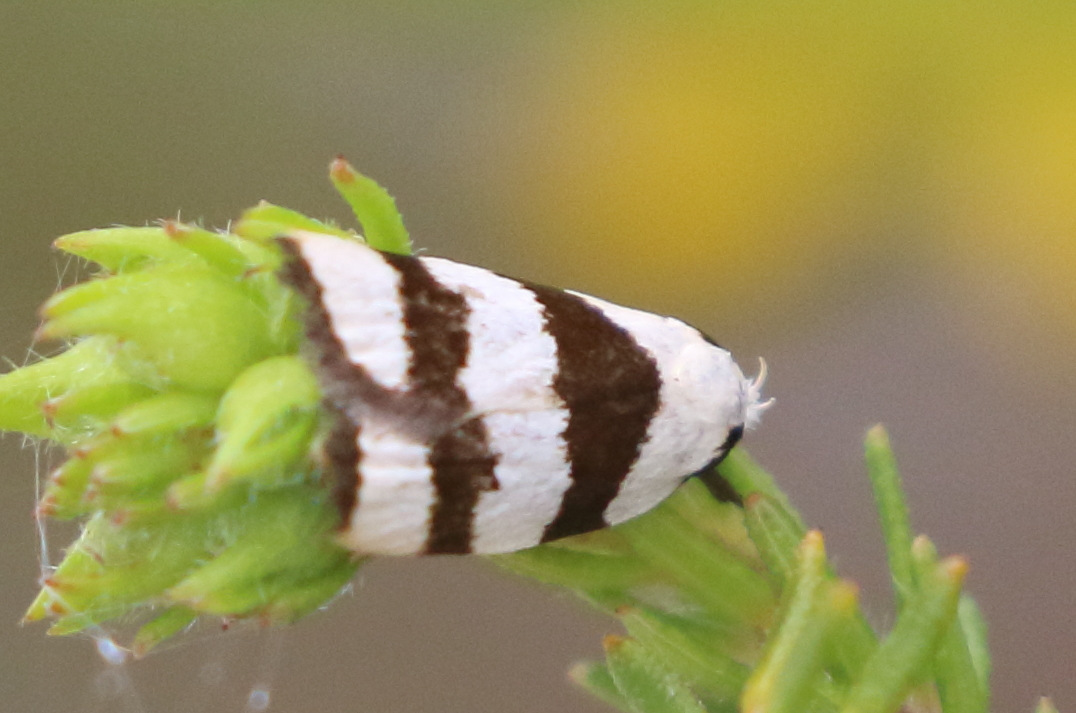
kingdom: Animalia
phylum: Arthropoda
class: Insecta
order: Lepidoptera
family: Oecophoridae
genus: Zonopetala
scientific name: Zonopetala divisella
